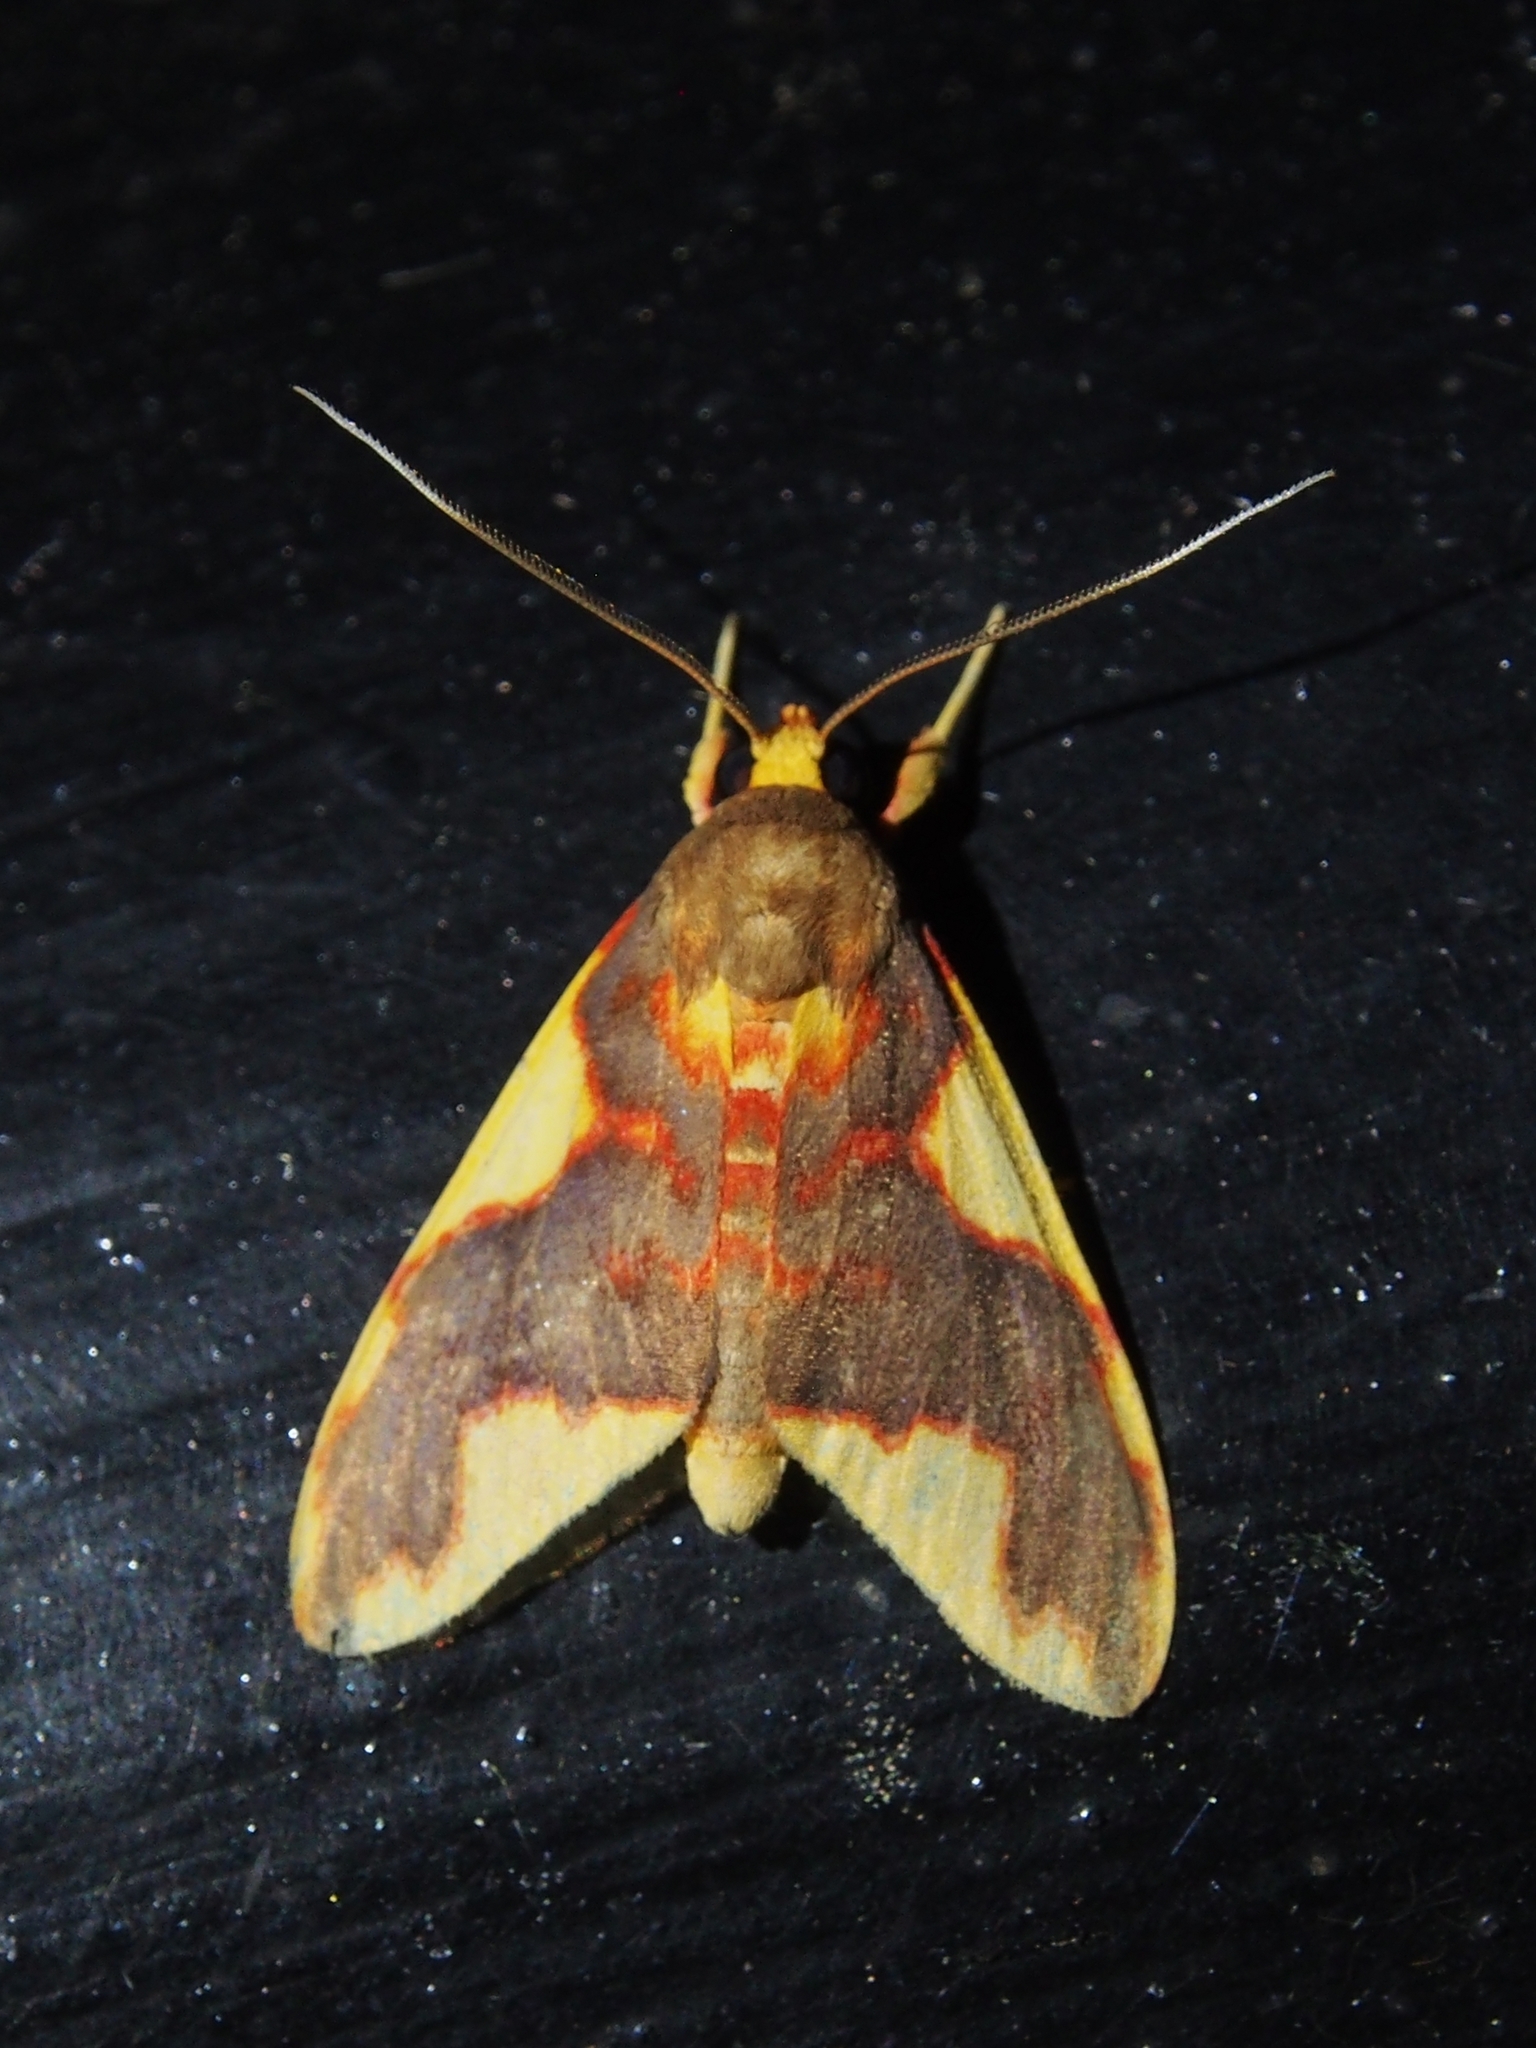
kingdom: Animalia
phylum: Arthropoda
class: Insecta
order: Lepidoptera
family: Erebidae
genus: Trichromia
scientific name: Trichromia rhodocraspis
